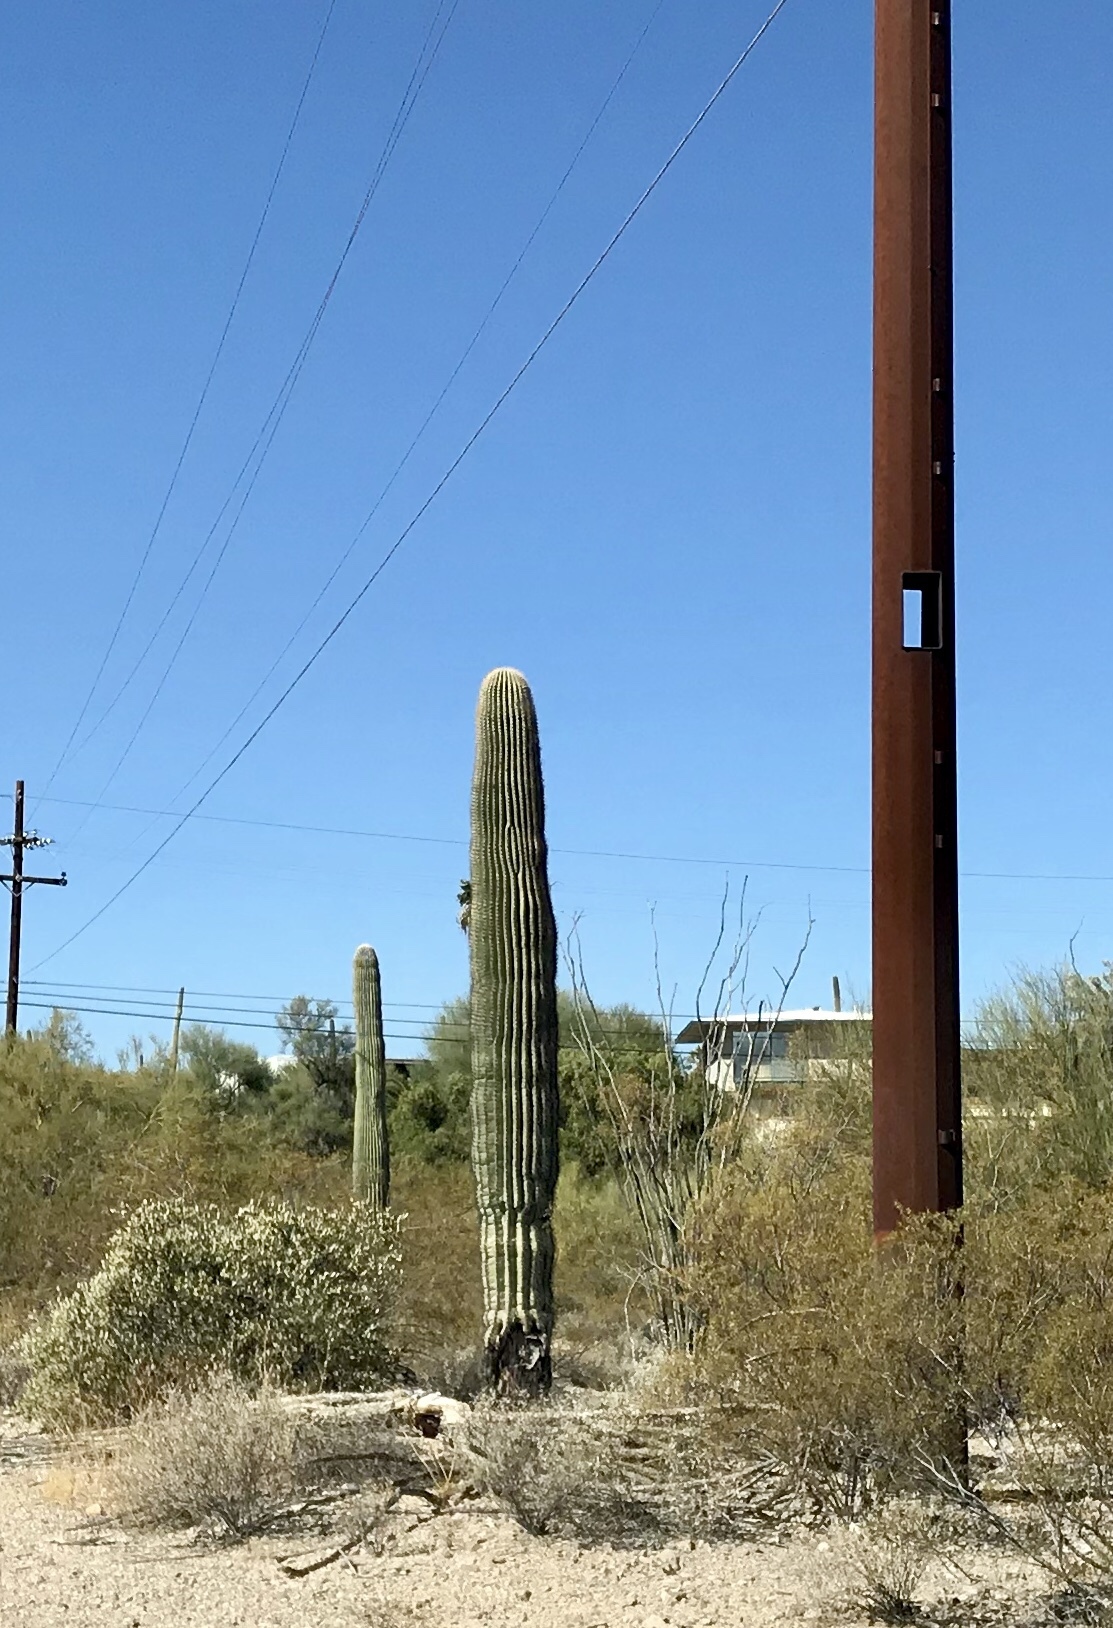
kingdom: Plantae
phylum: Tracheophyta
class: Magnoliopsida
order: Caryophyllales
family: Cactaceae
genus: Carnegiea
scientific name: Carnegiea gigantea
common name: Saguaro
